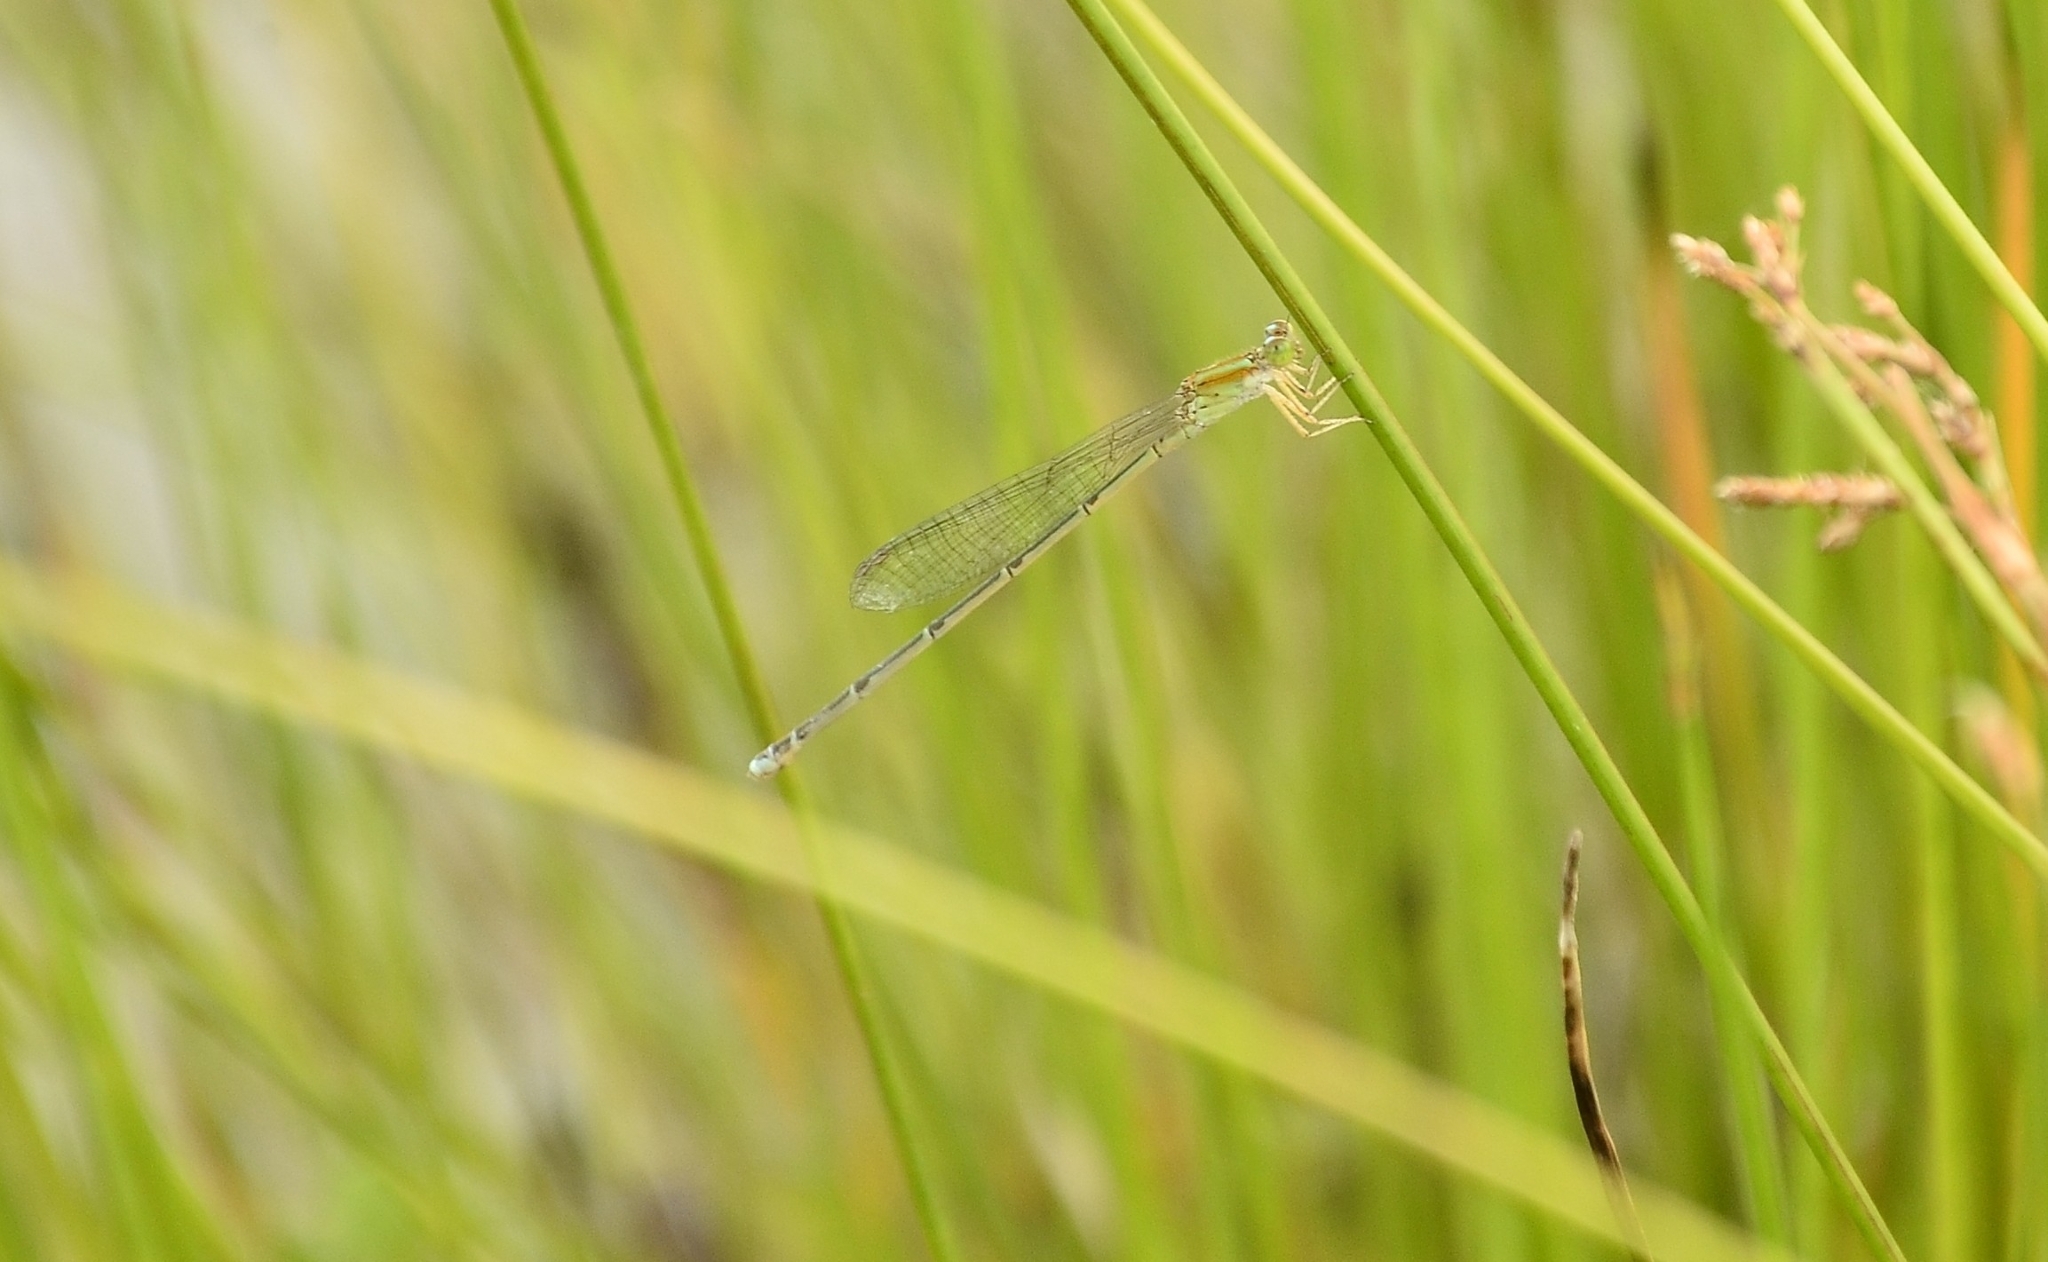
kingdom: Animalia
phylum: Arthropoda
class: Insecta
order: Odonata
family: Coenagrionidae
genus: Pseudagrion
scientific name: Pseudagrion microcephalum
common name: Blue riverdamsel
